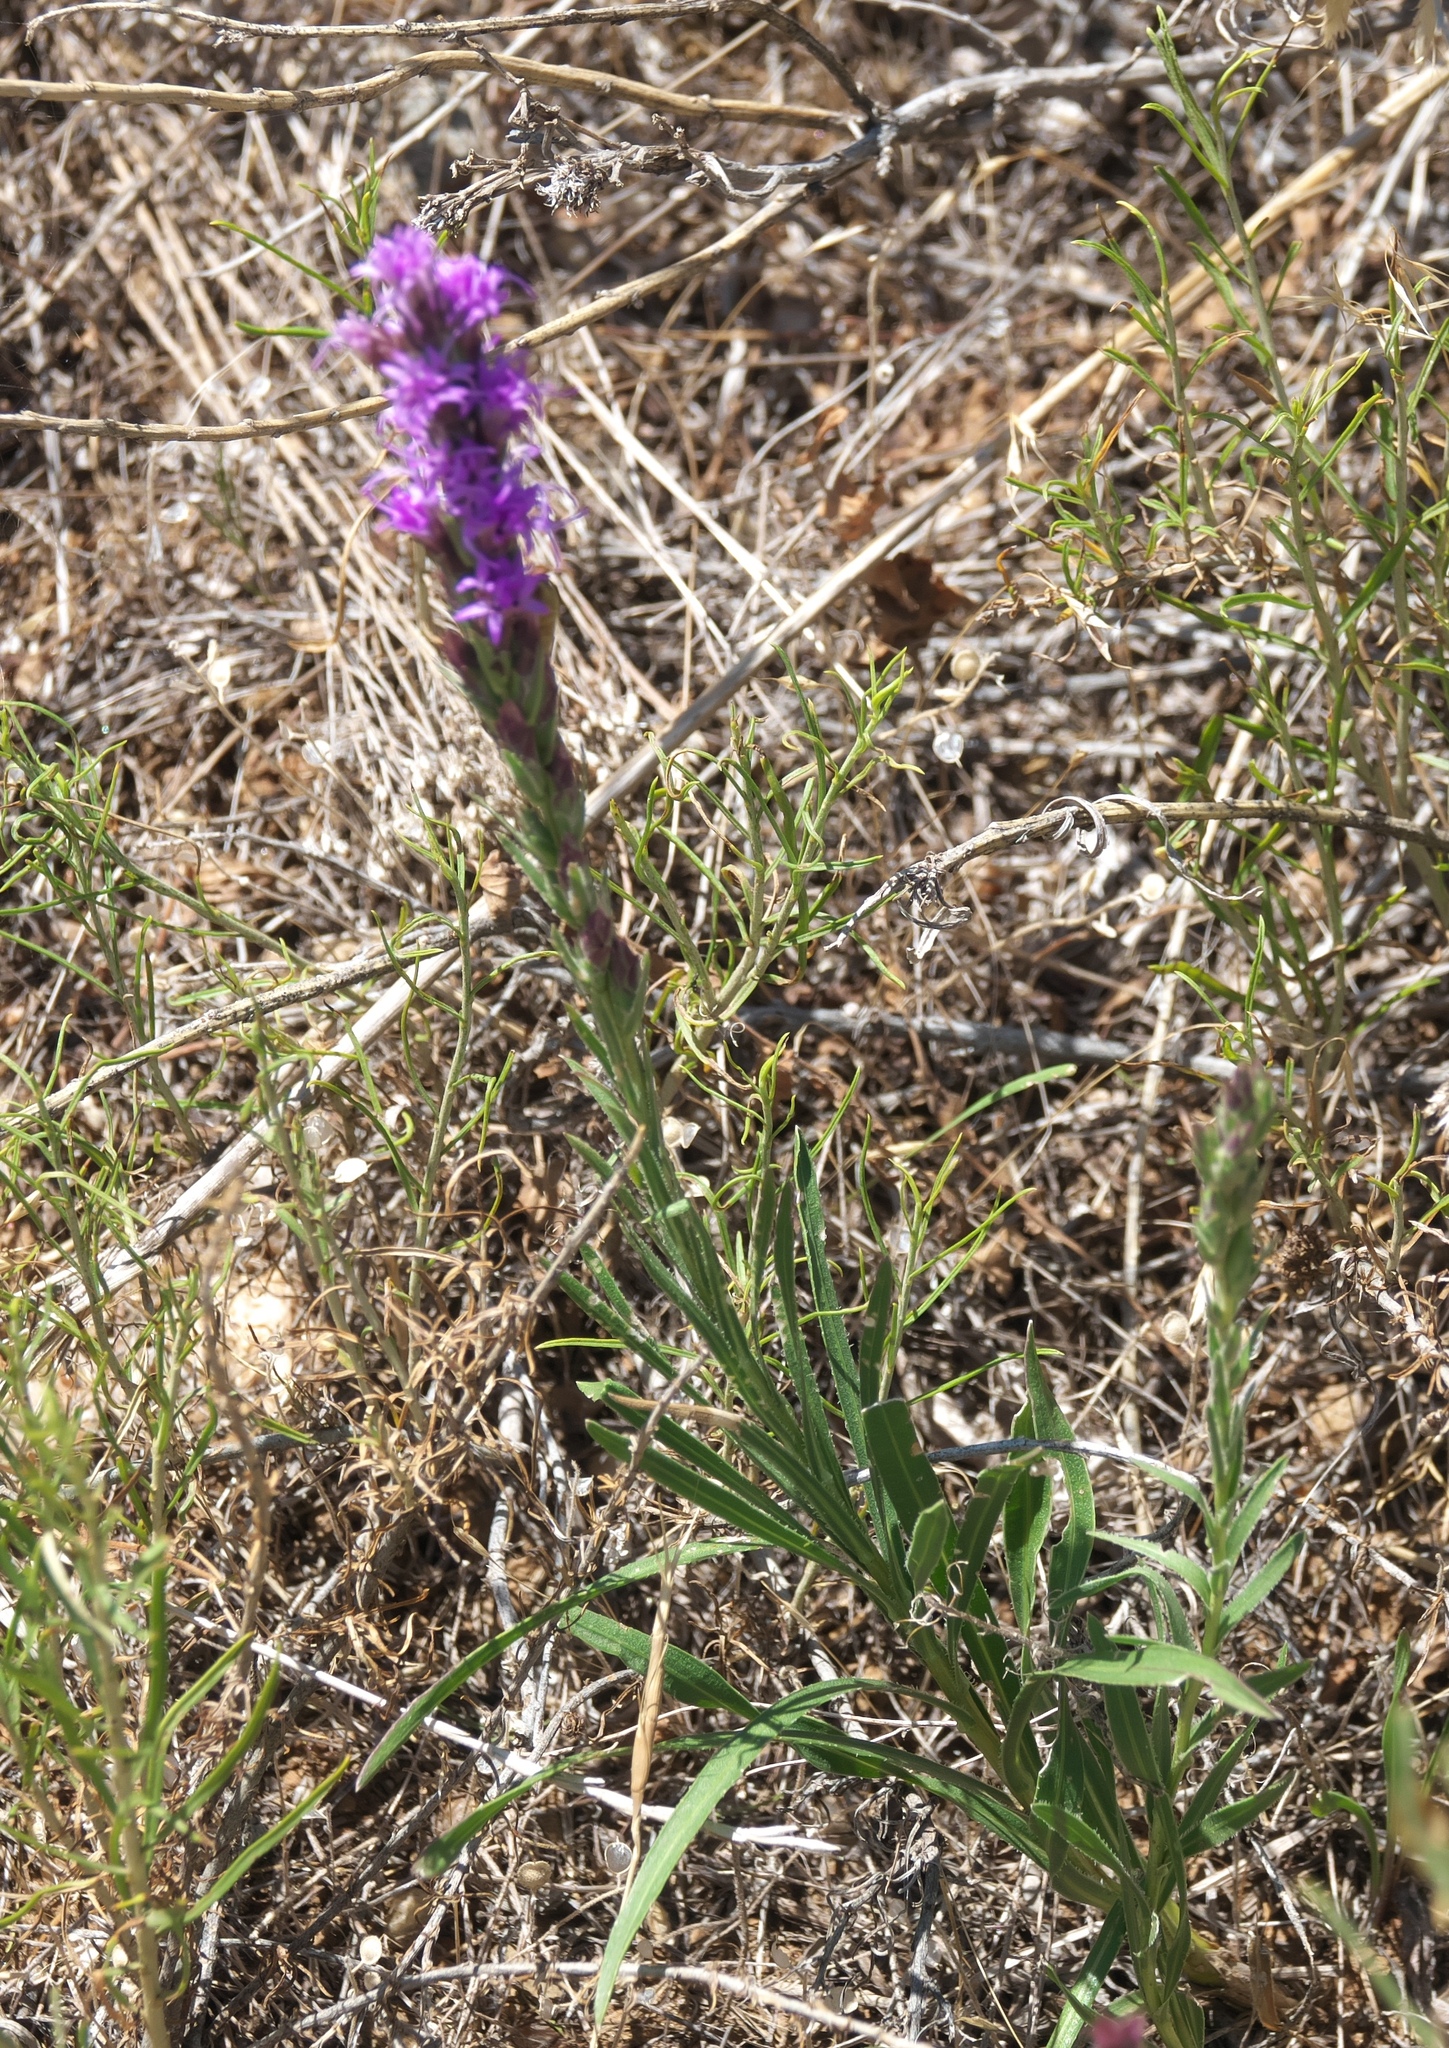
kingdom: Plantae
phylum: Tracheophyta
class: Magnoliopsida
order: Asterales
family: Asteraceae
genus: Liatris
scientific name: Liatris punctata
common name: Dotted gayfeather
